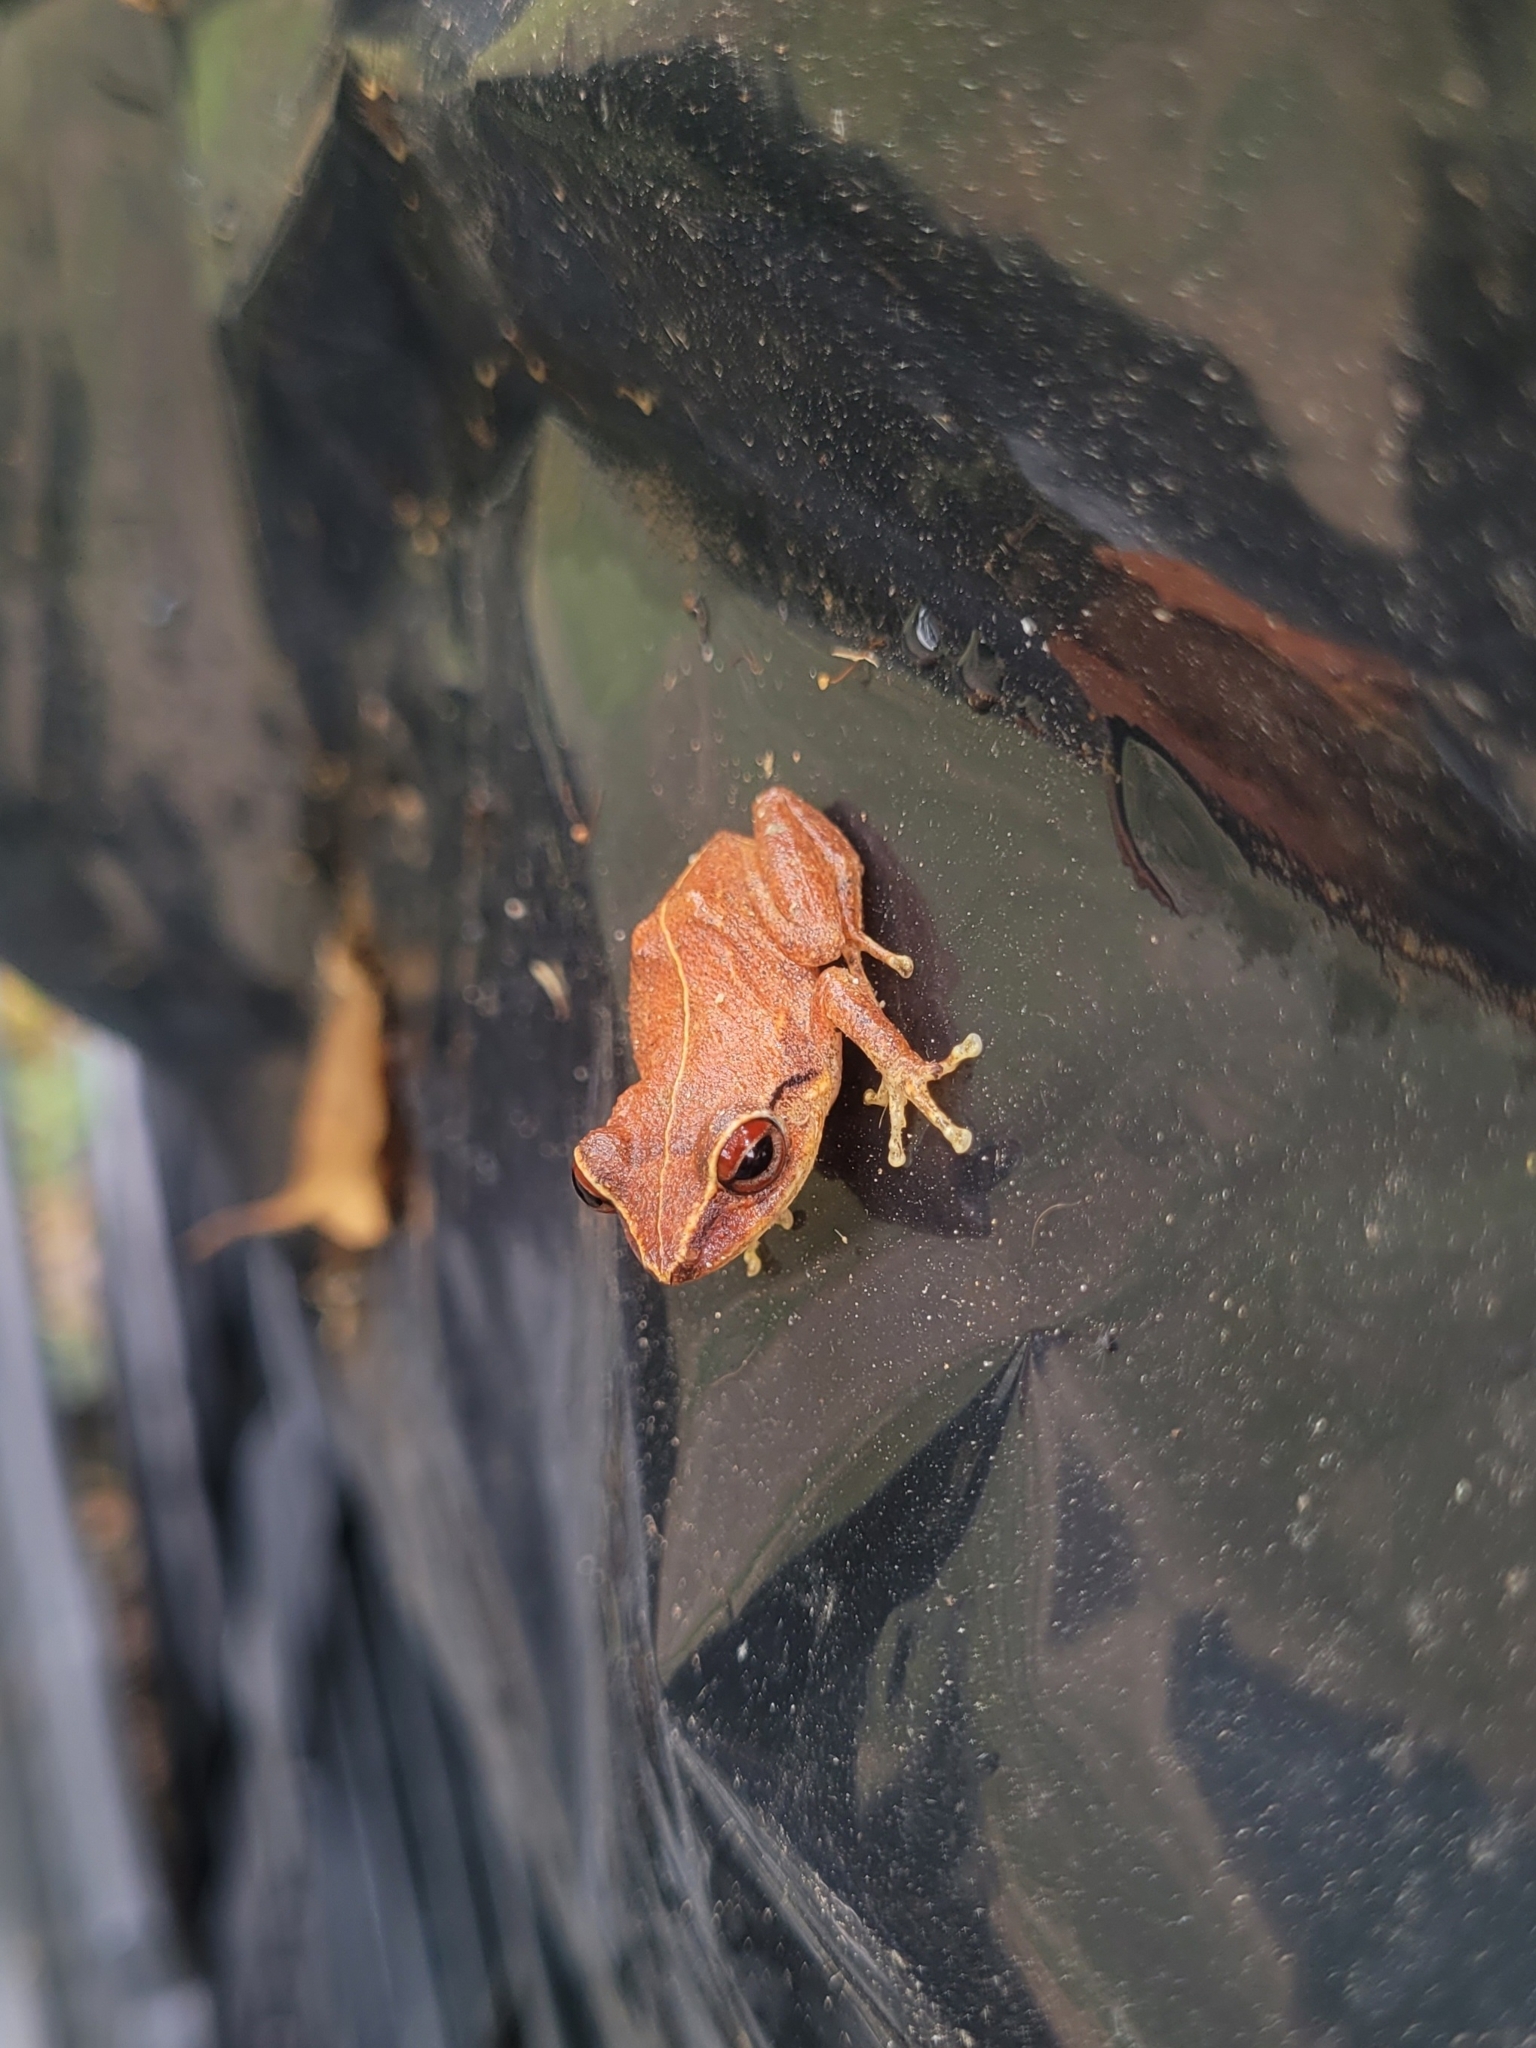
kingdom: Animalia
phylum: Chordata
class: Amphibia
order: Anura
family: Eleutherodactylidae
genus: Eleutherodactylus
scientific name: Eleutherodactylus antillensis
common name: Antillean coqui
